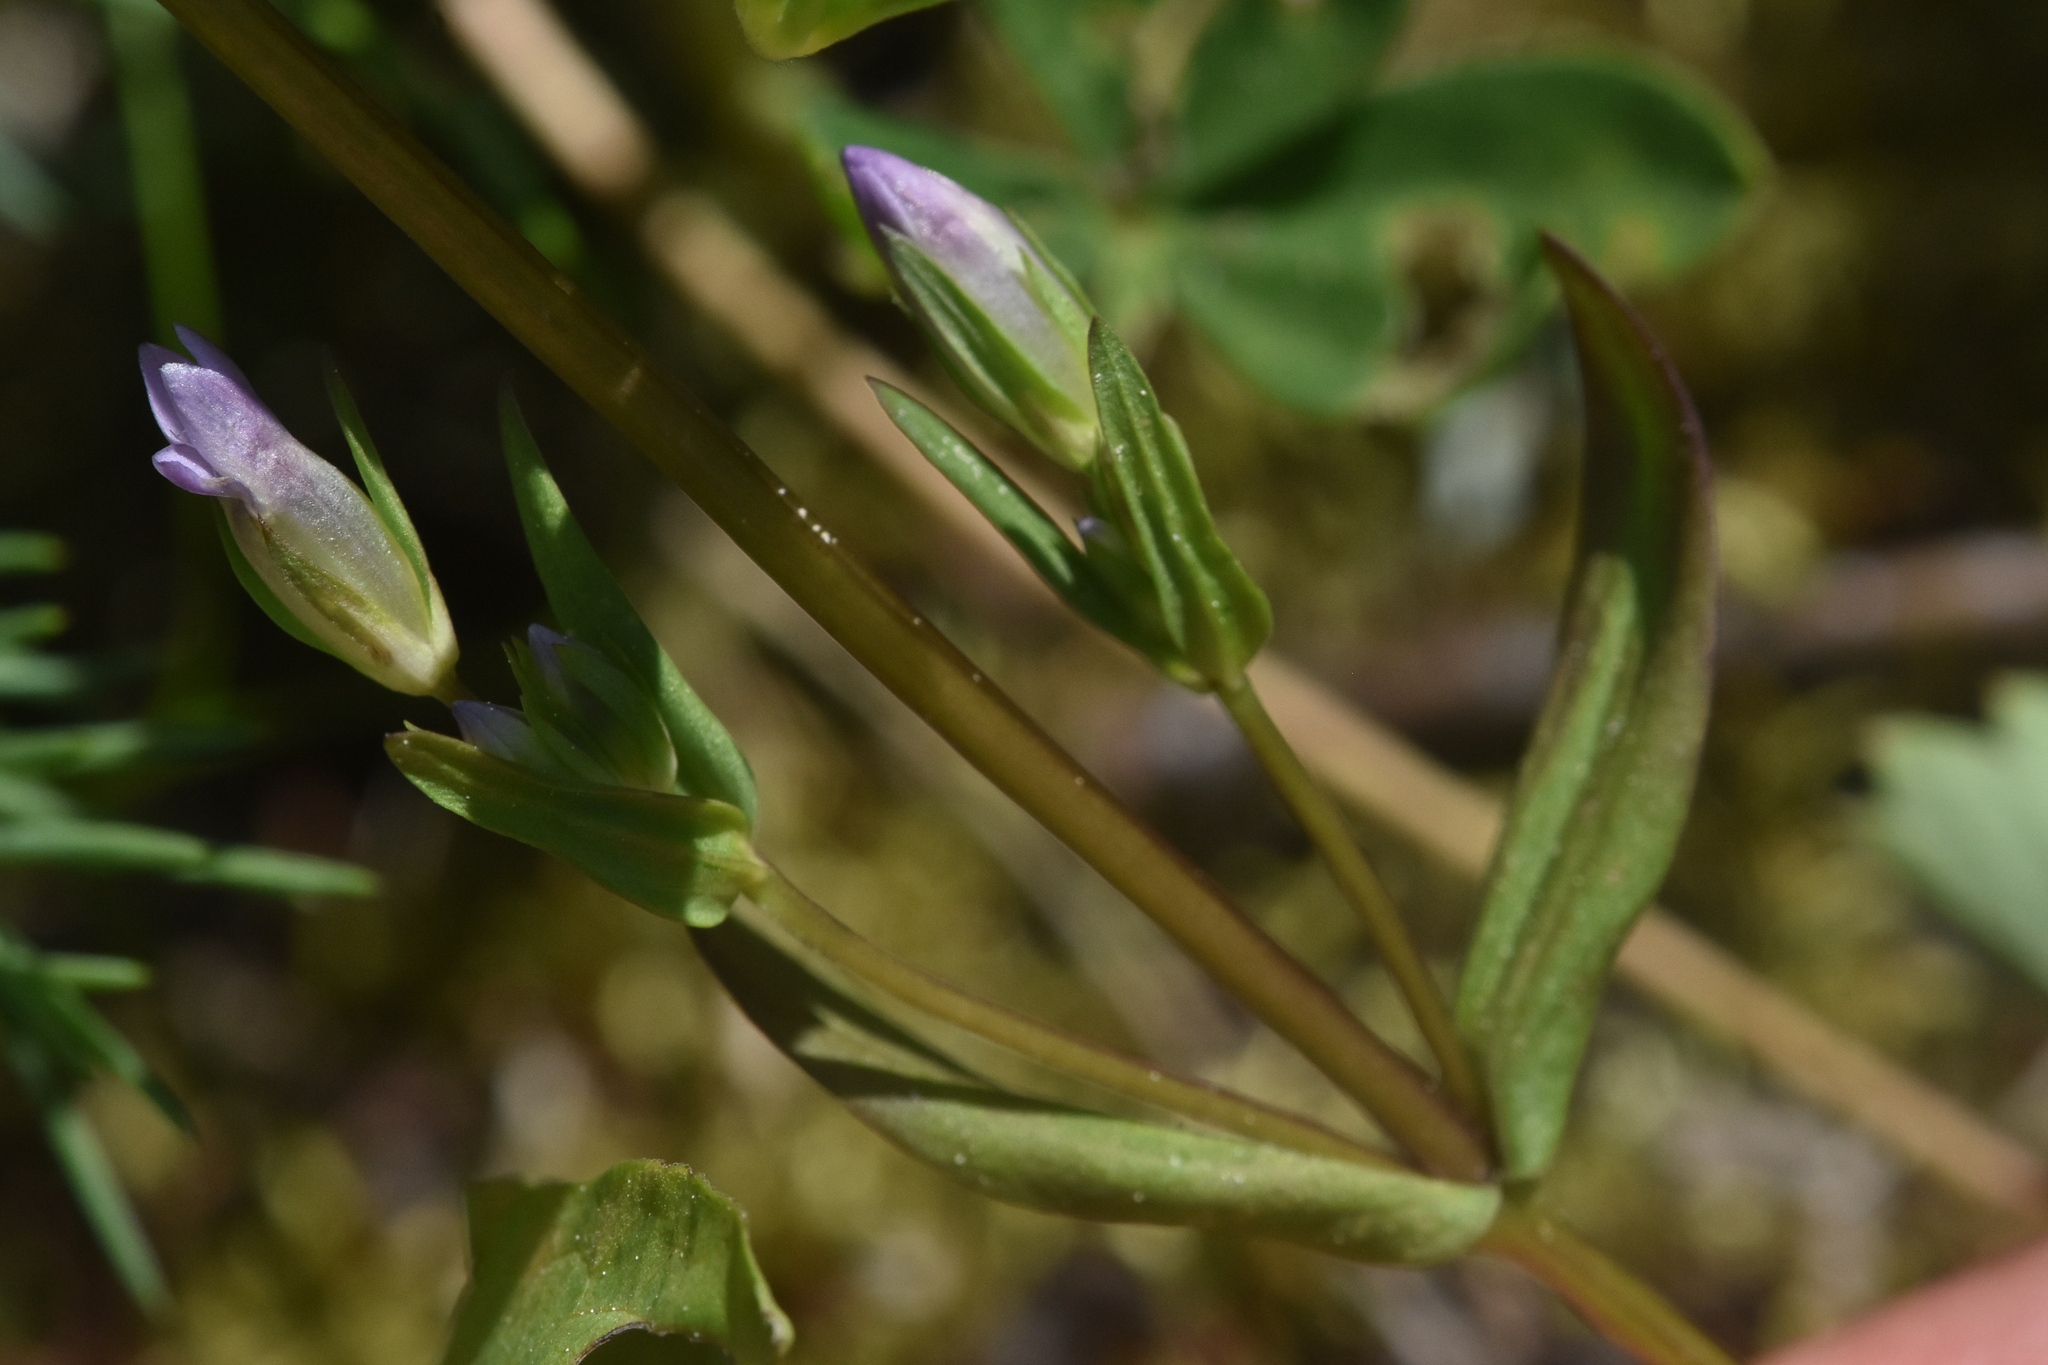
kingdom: Plantae
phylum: Tracheophyta
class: Magnoliopsida
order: Gentianales
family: Gentianaceae
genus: Gentianella
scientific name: Gentianella amarella
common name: Autumn gentian
